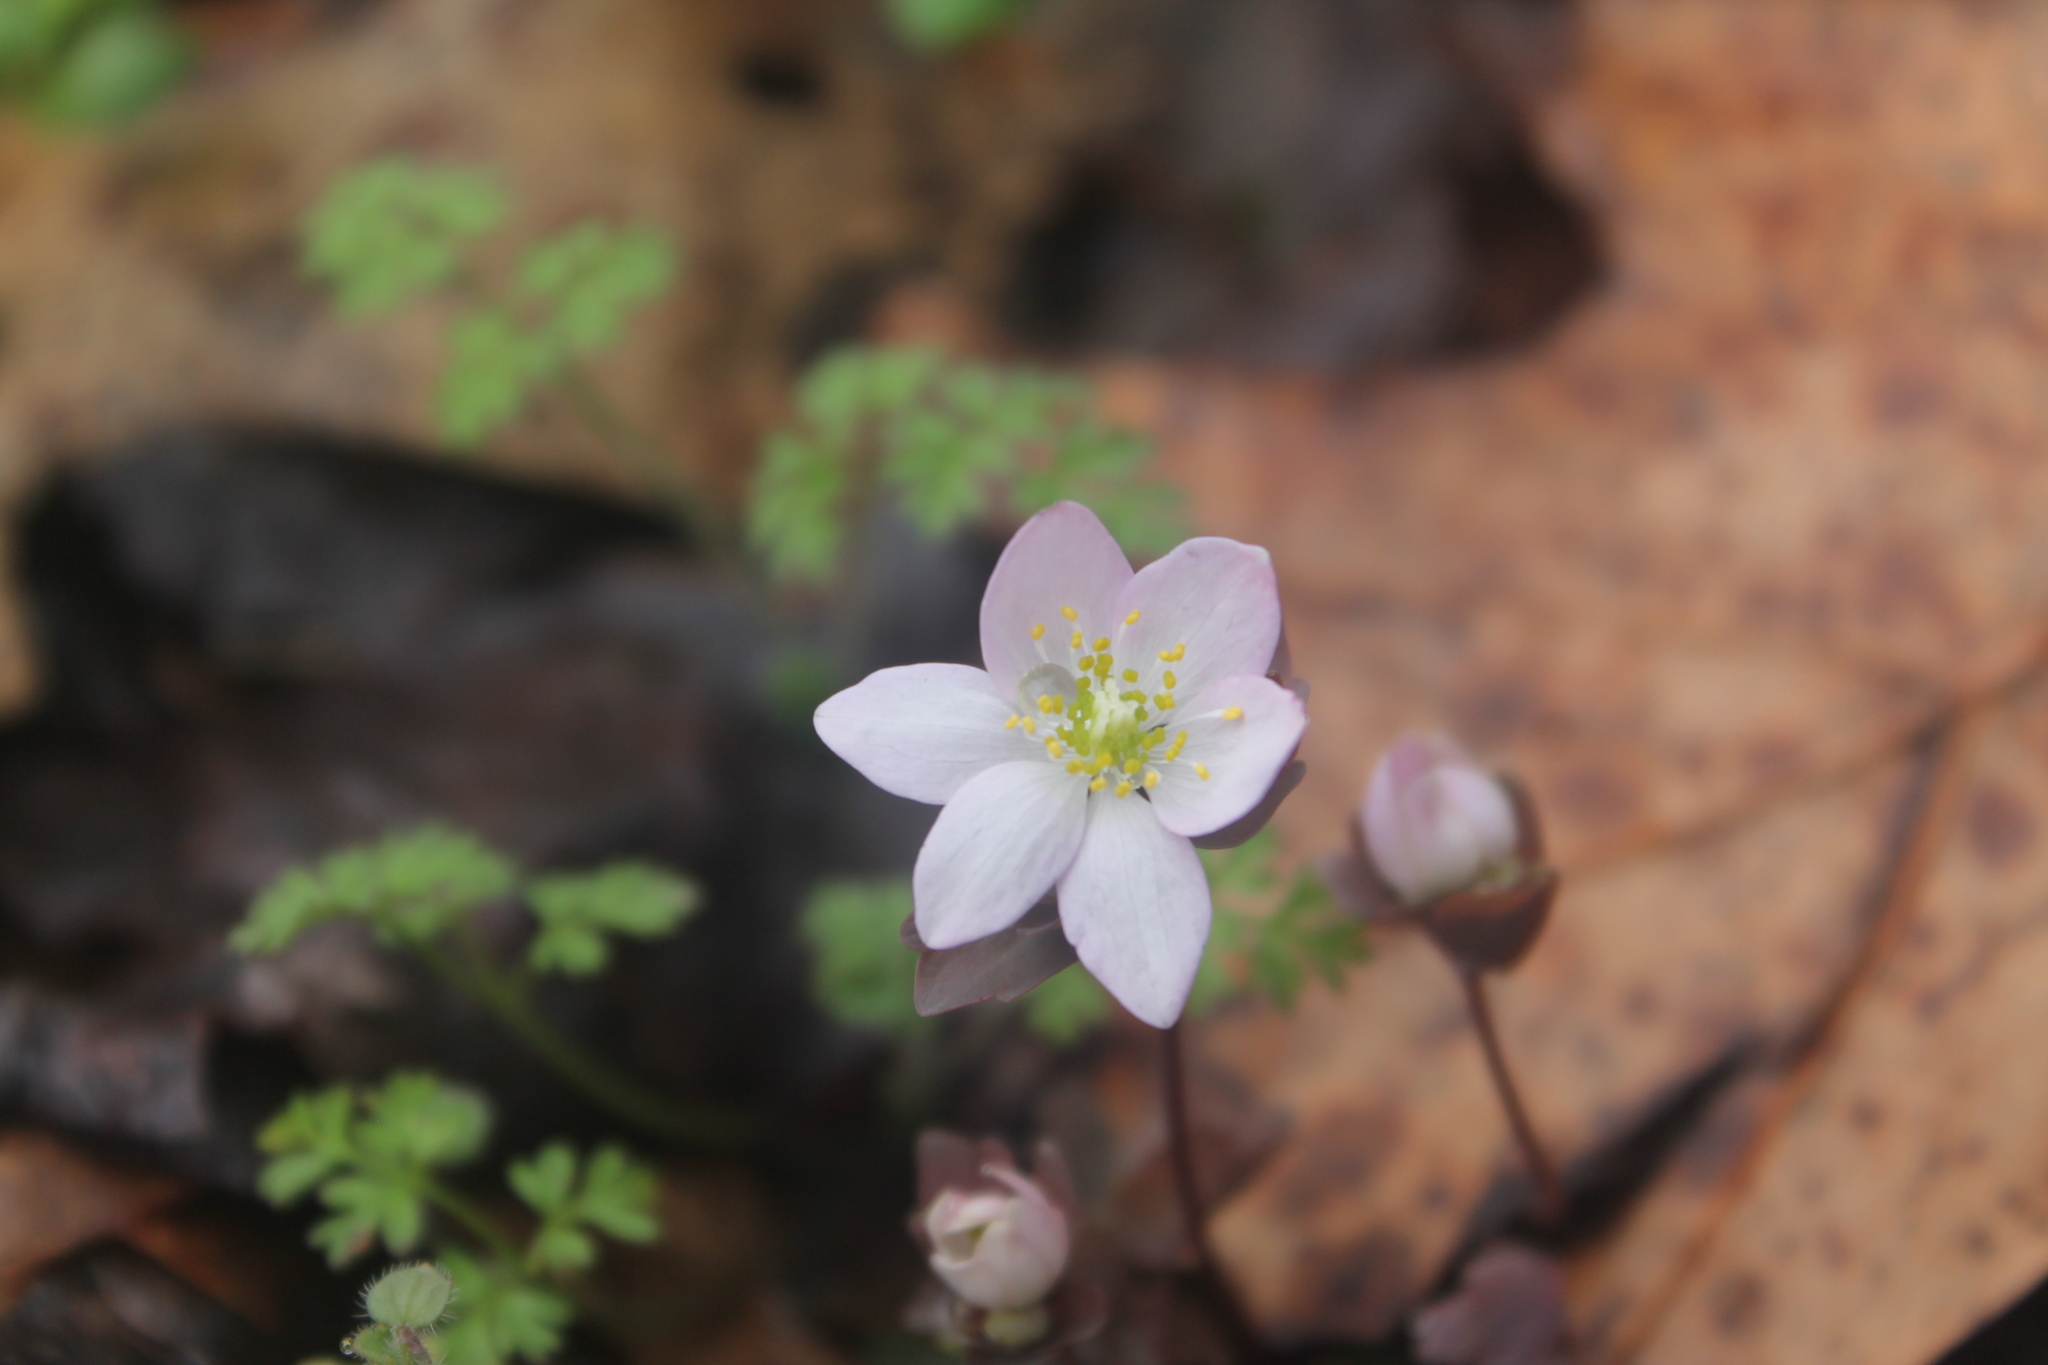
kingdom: Plantae
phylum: Tracheophyta
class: Magnoliopsida
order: Ranunculales
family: Ranunculaceae
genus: Thalictrum
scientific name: Thalictrum thalictroides
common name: Rue-anemone
